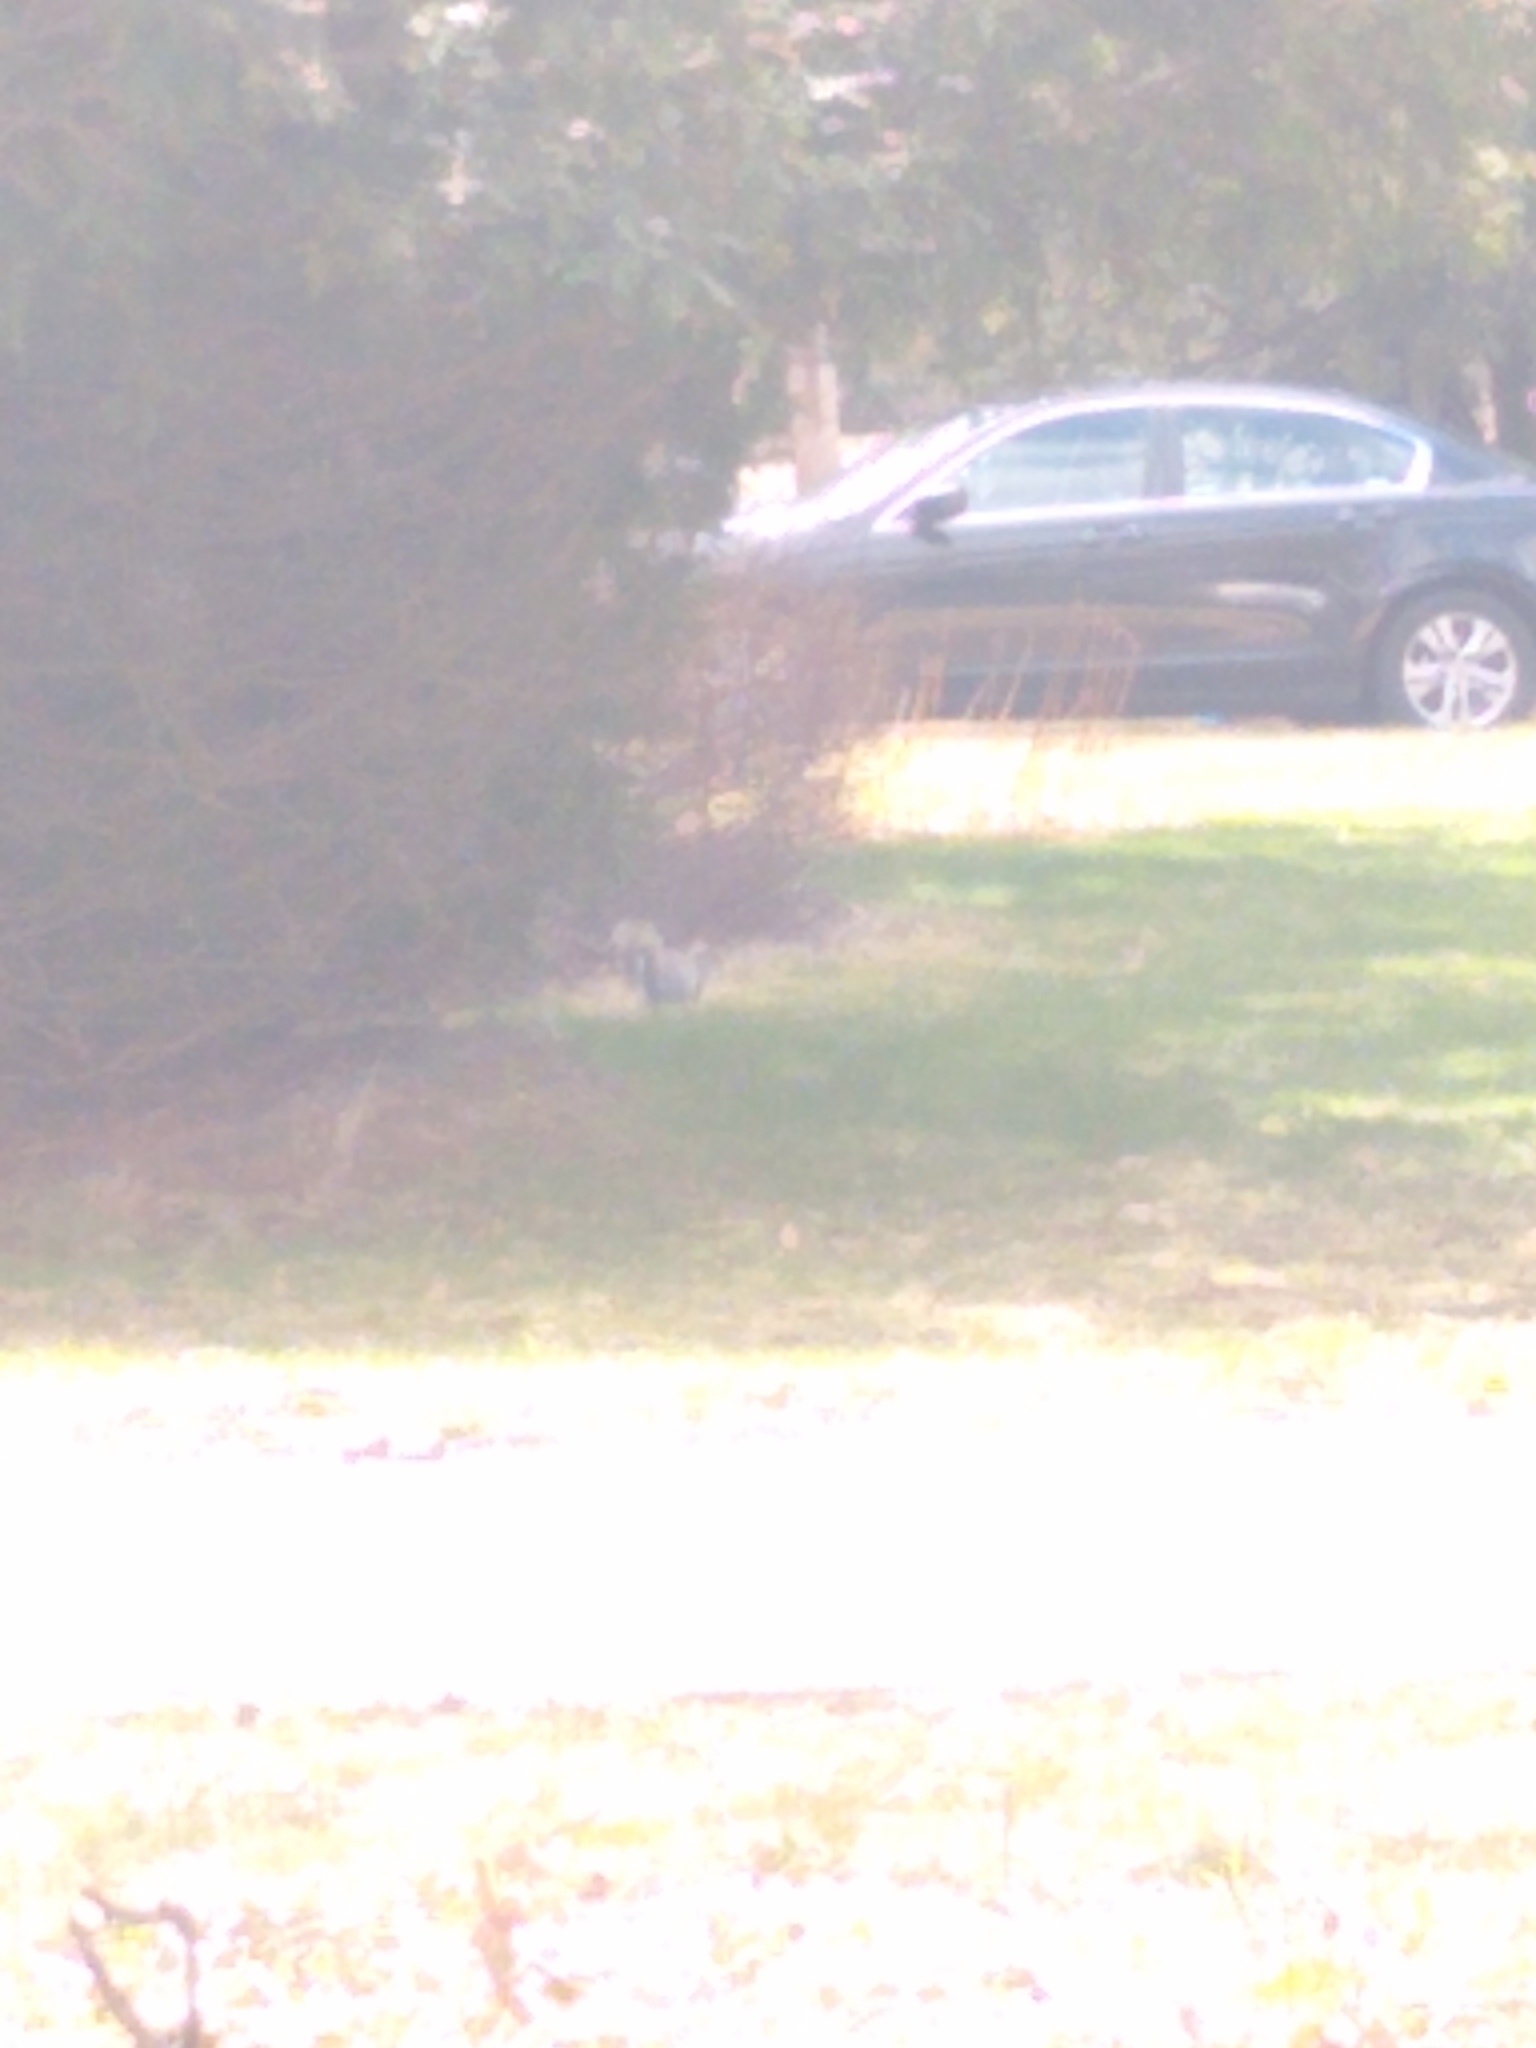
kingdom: Animalia
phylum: Chordata
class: Mammalia
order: Rodentia
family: Sciuridae
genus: Sciurus
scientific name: Sciurus carolinensis
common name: Eastern gray squirrel
